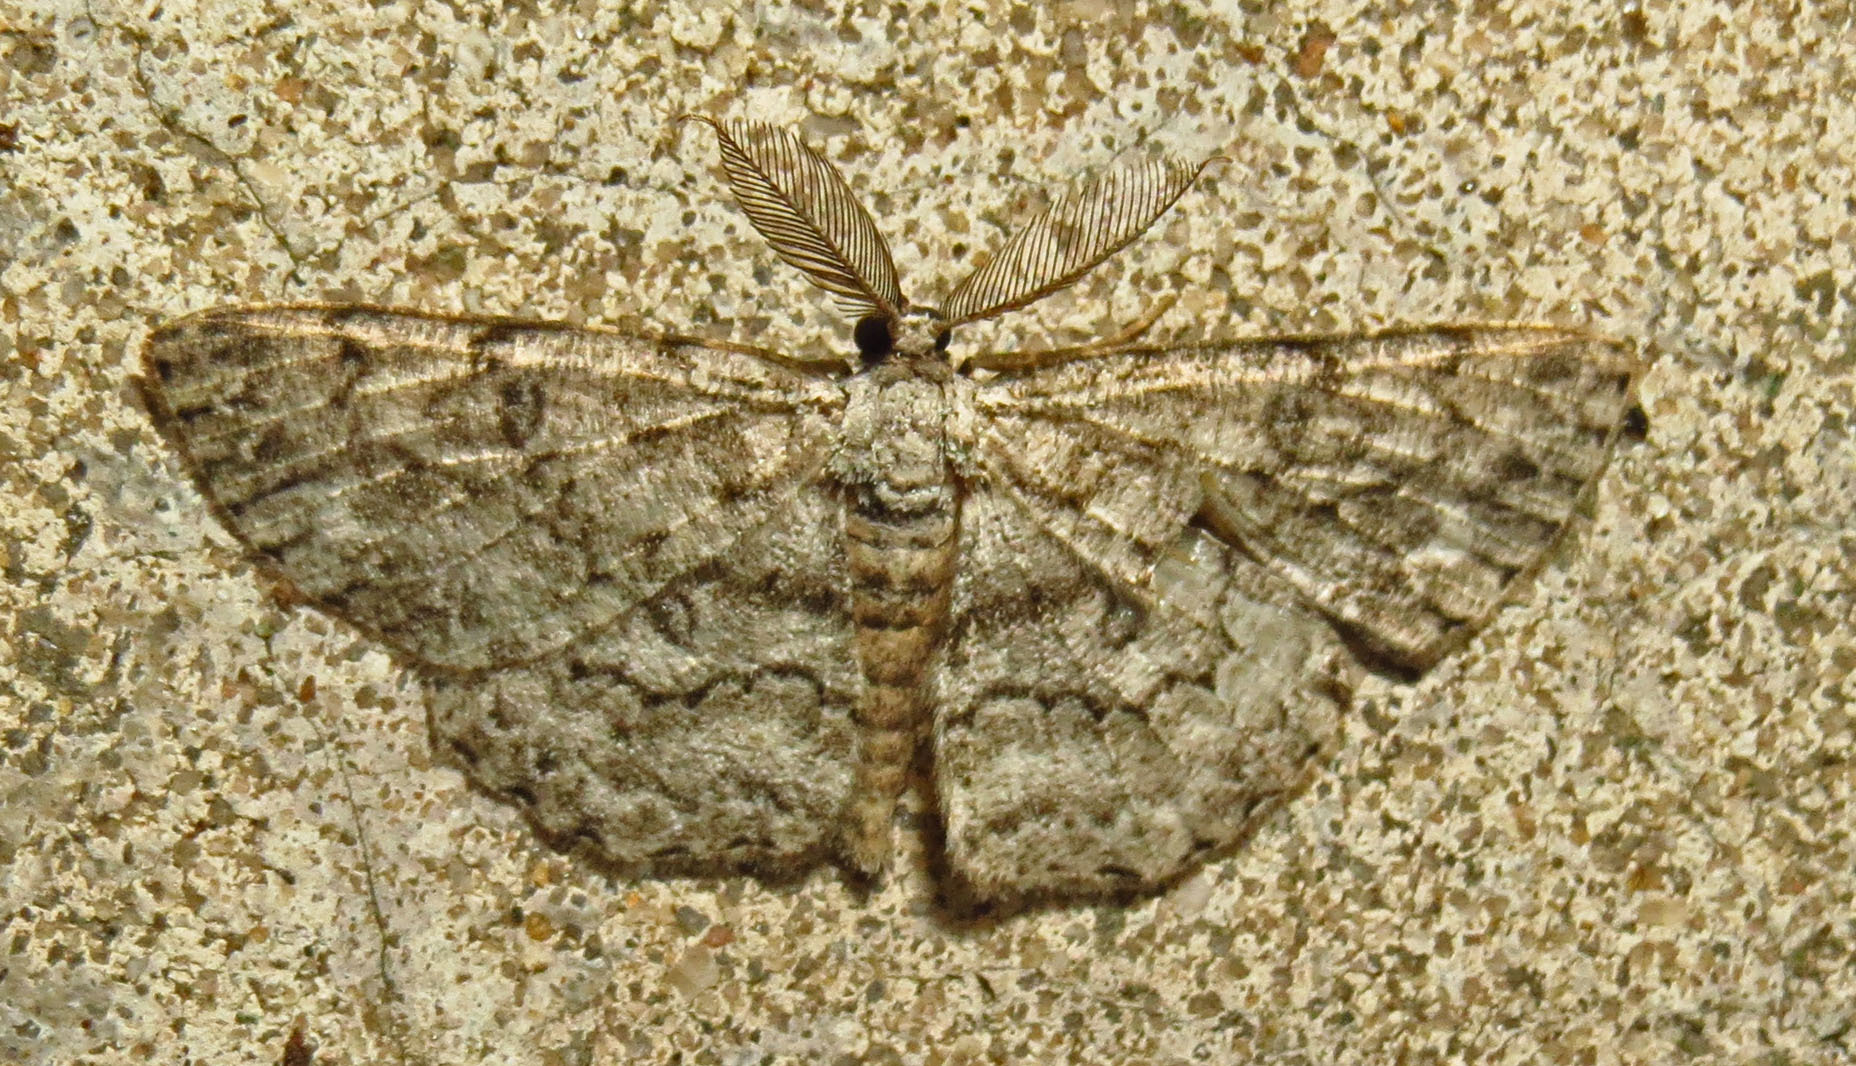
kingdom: Animalia
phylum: Arthropoda
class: Insecta
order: Lepidoptera
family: Geometridae
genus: Hypomecis
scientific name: Hypomecis umbrosaria
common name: Umber moth
